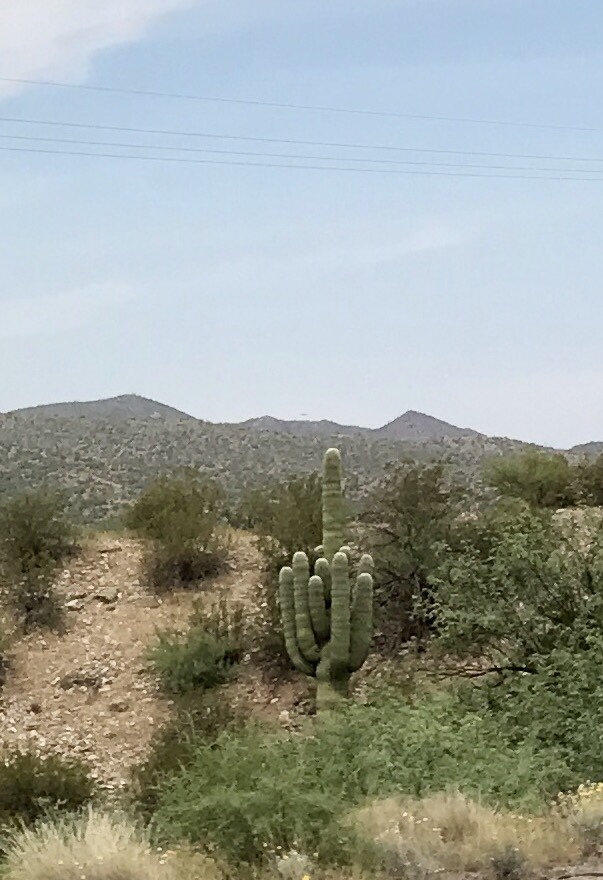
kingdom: Plantae
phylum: Tracheophyta
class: Magnoliopsida
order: Caryophyllales
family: Cactaceae
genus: Carnegiea
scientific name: Carnegiea gigantea
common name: Saguaro
